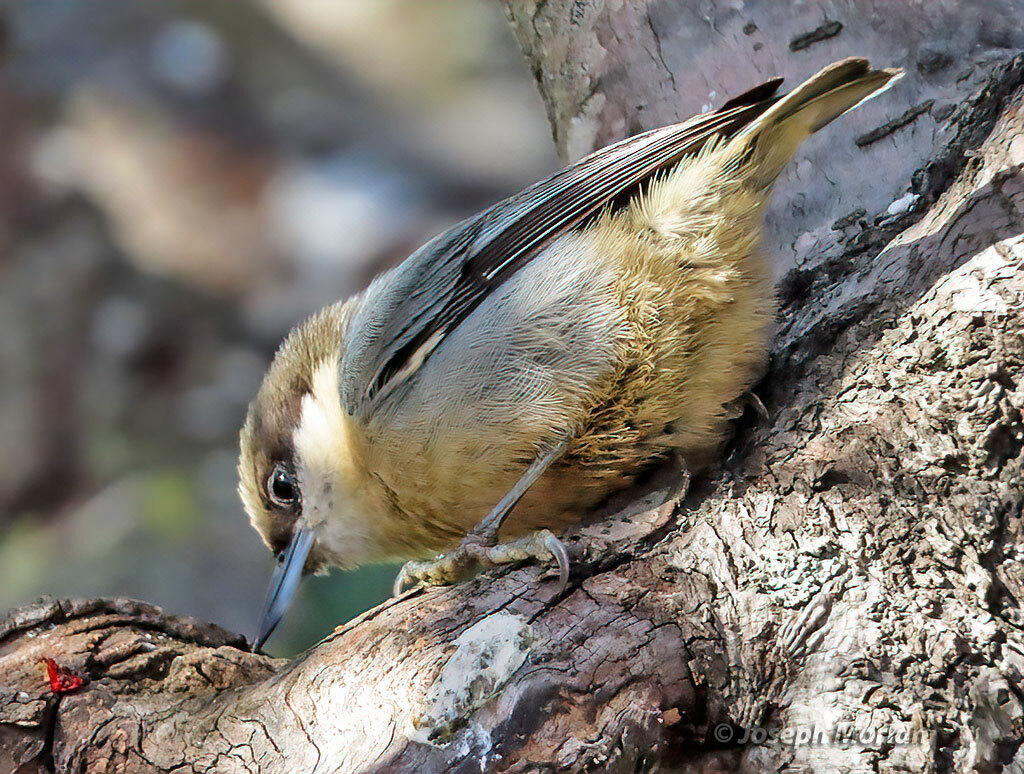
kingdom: Animalia
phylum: Chordata
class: Aves
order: Passeriformes
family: Sittidae
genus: Sitta
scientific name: Sitta pygmaea
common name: Pygmy nuthatch
